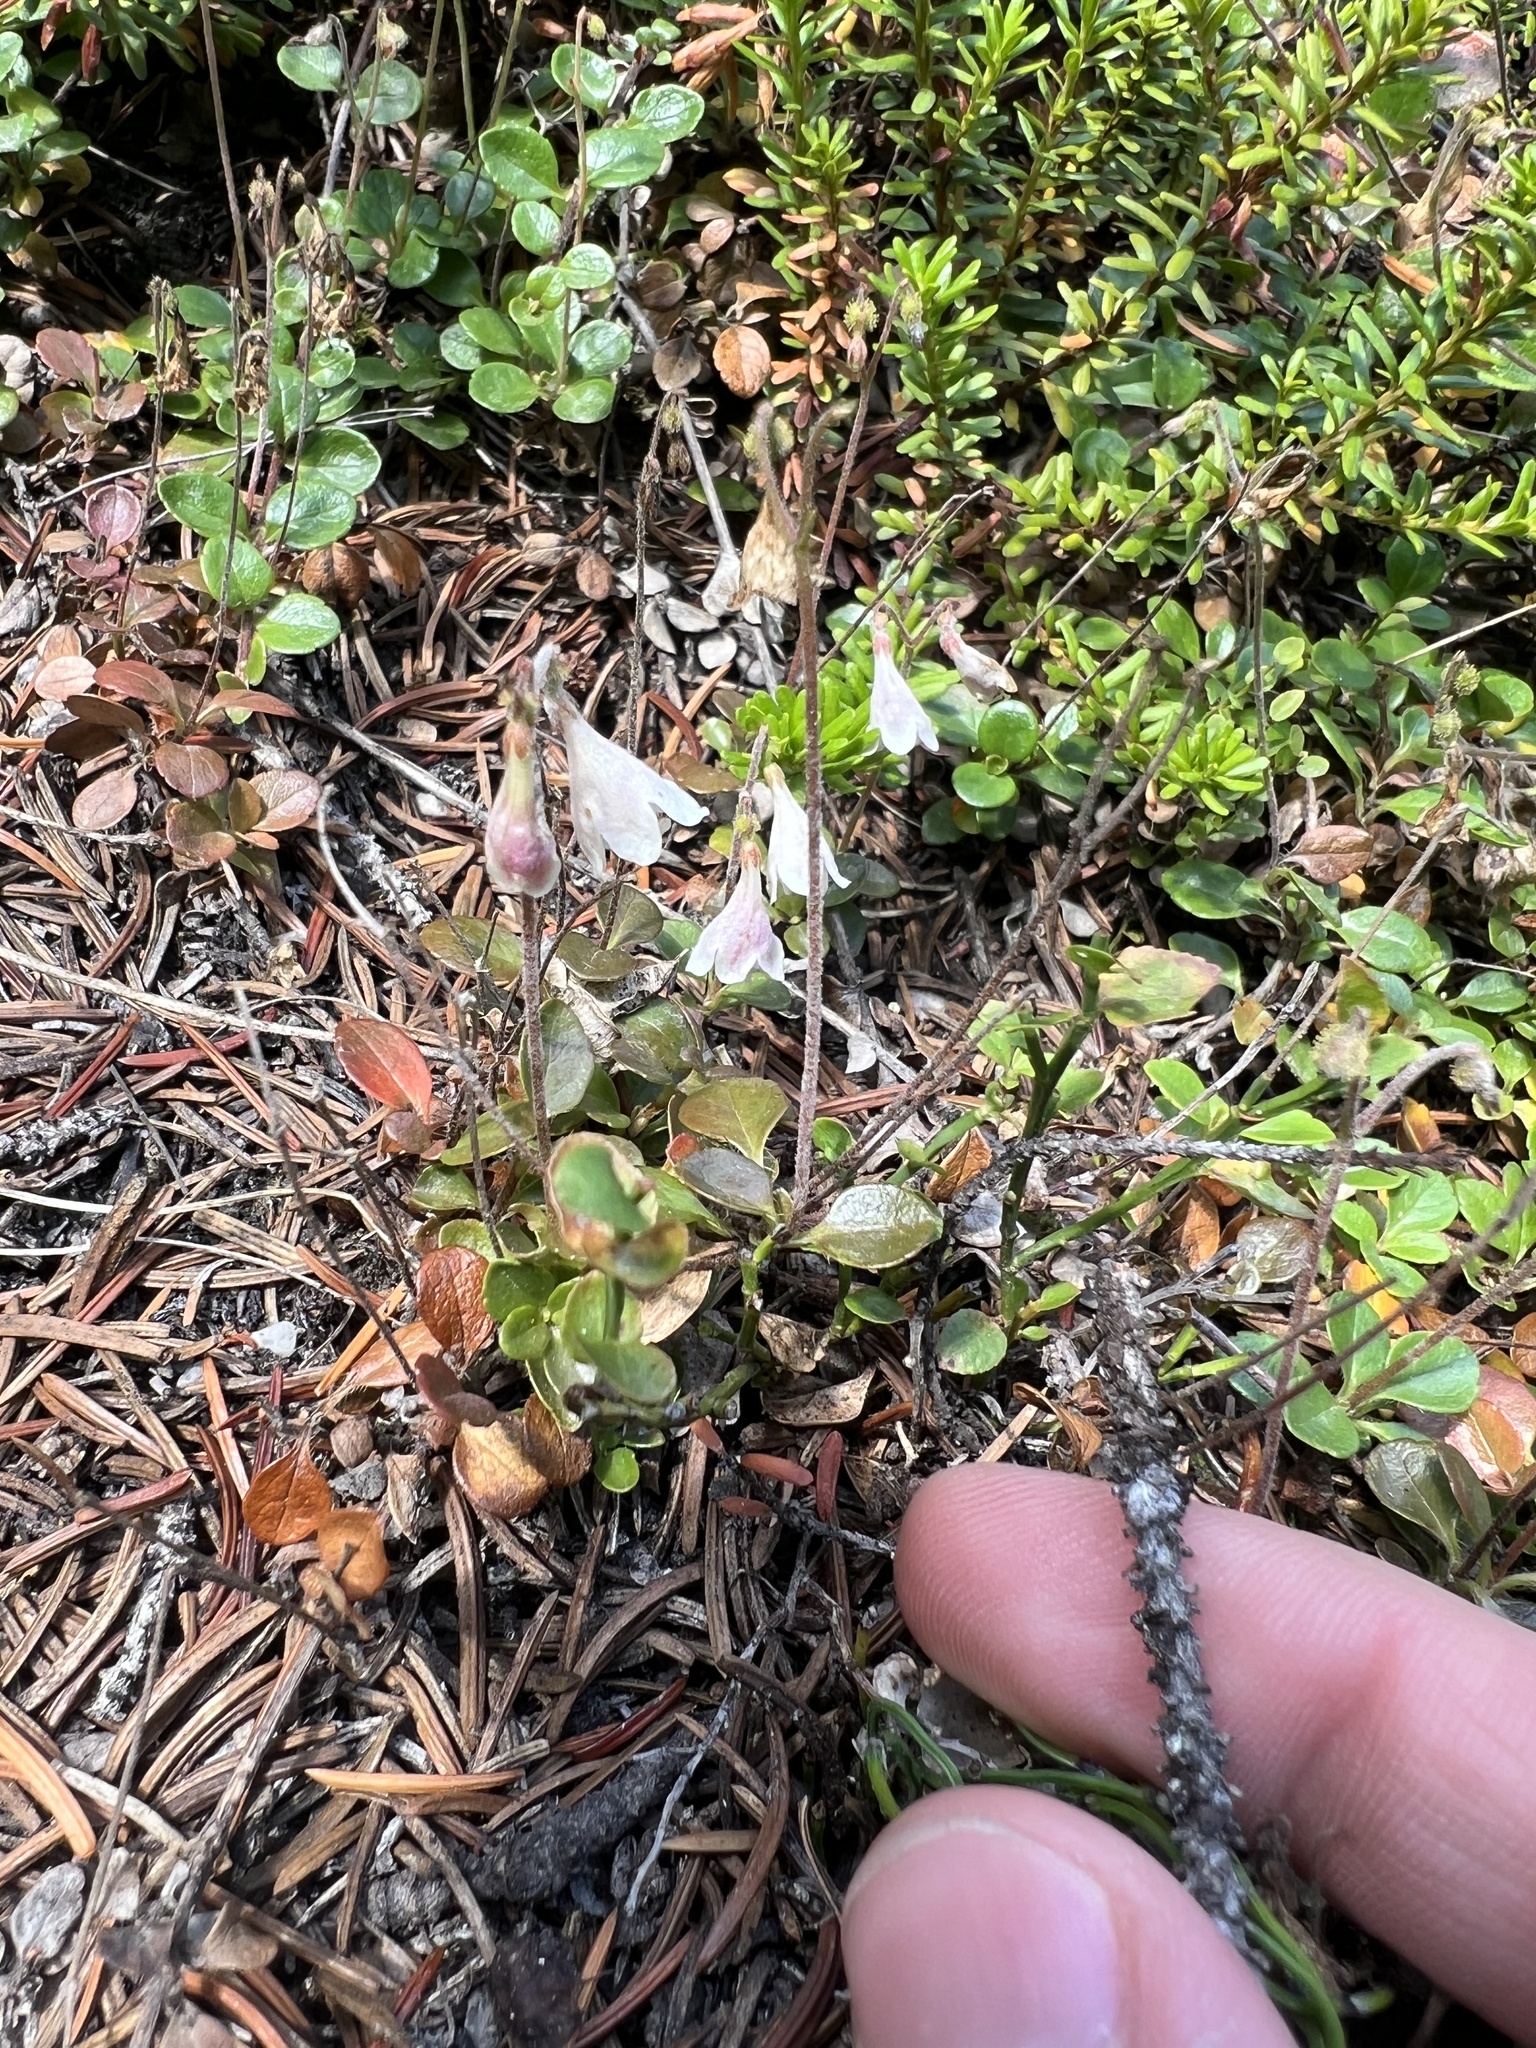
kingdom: Plantae
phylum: Tracheophyta
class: Magnoliopsida
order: Dipsacales
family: Caprifoliaceae
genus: Linnaea
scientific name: Linnaea borealis
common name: Twinflower
